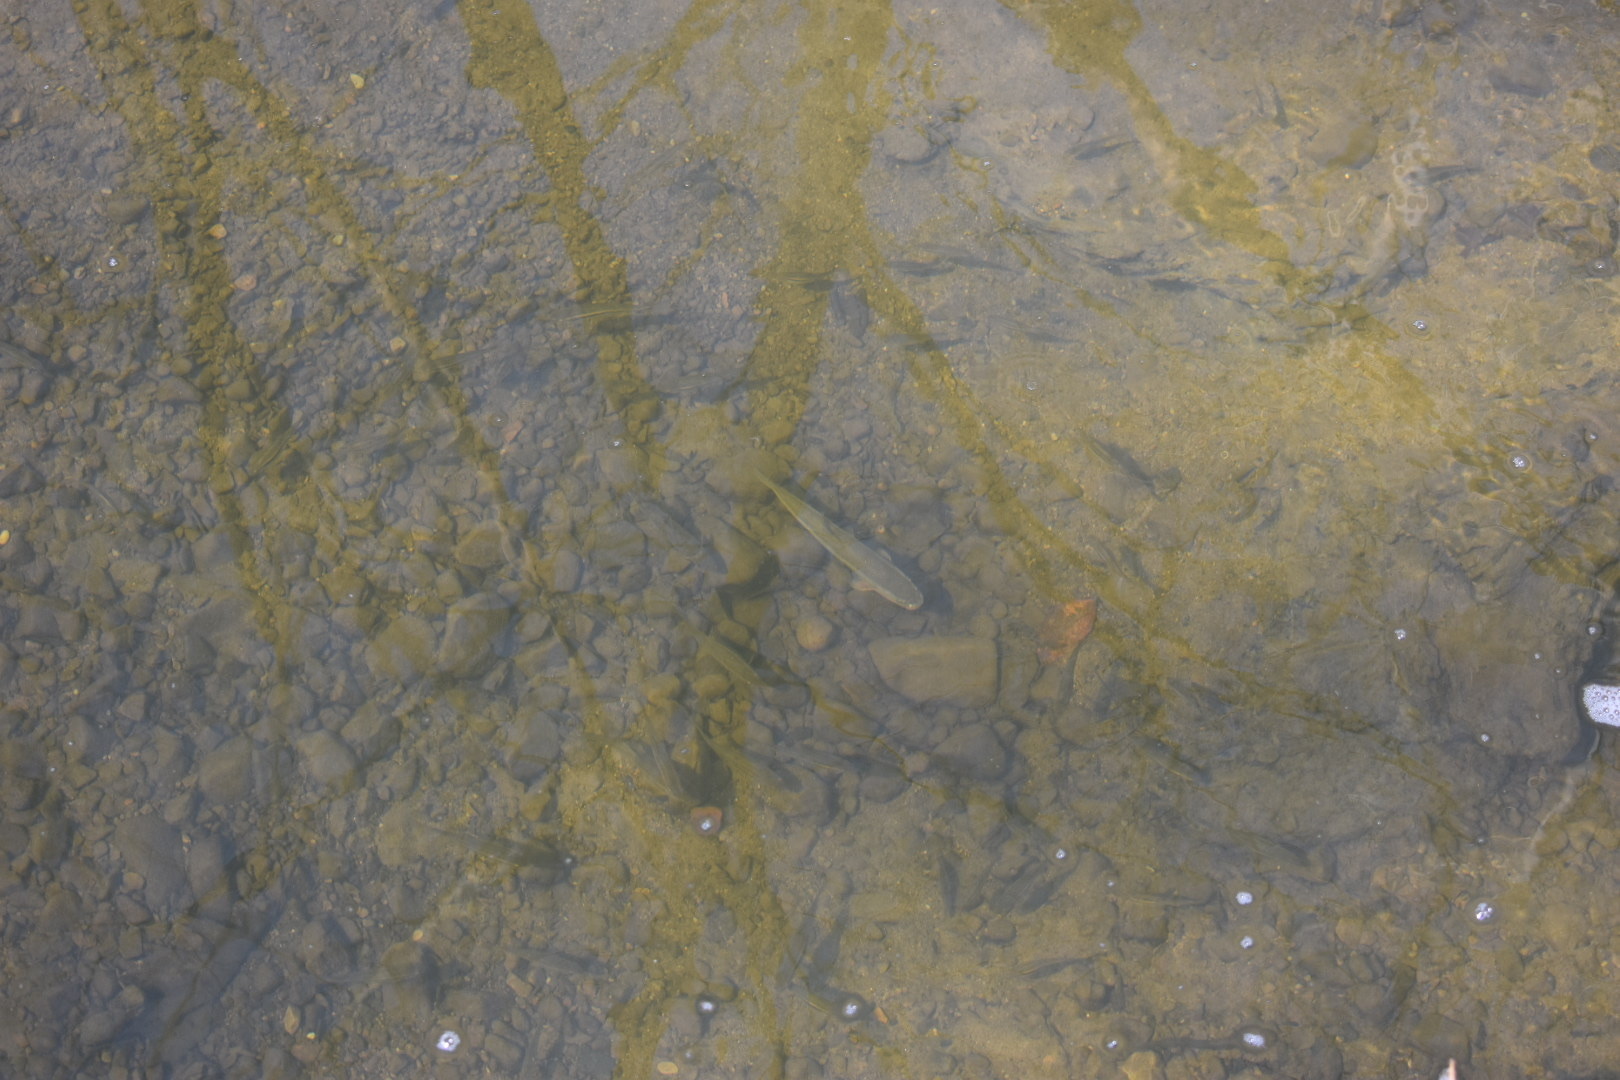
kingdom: Animalia
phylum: Chordata
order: Cypriniformes
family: Cyprinidae
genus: Semotilus
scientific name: Semotilus atromaculatus
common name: Creek chub
